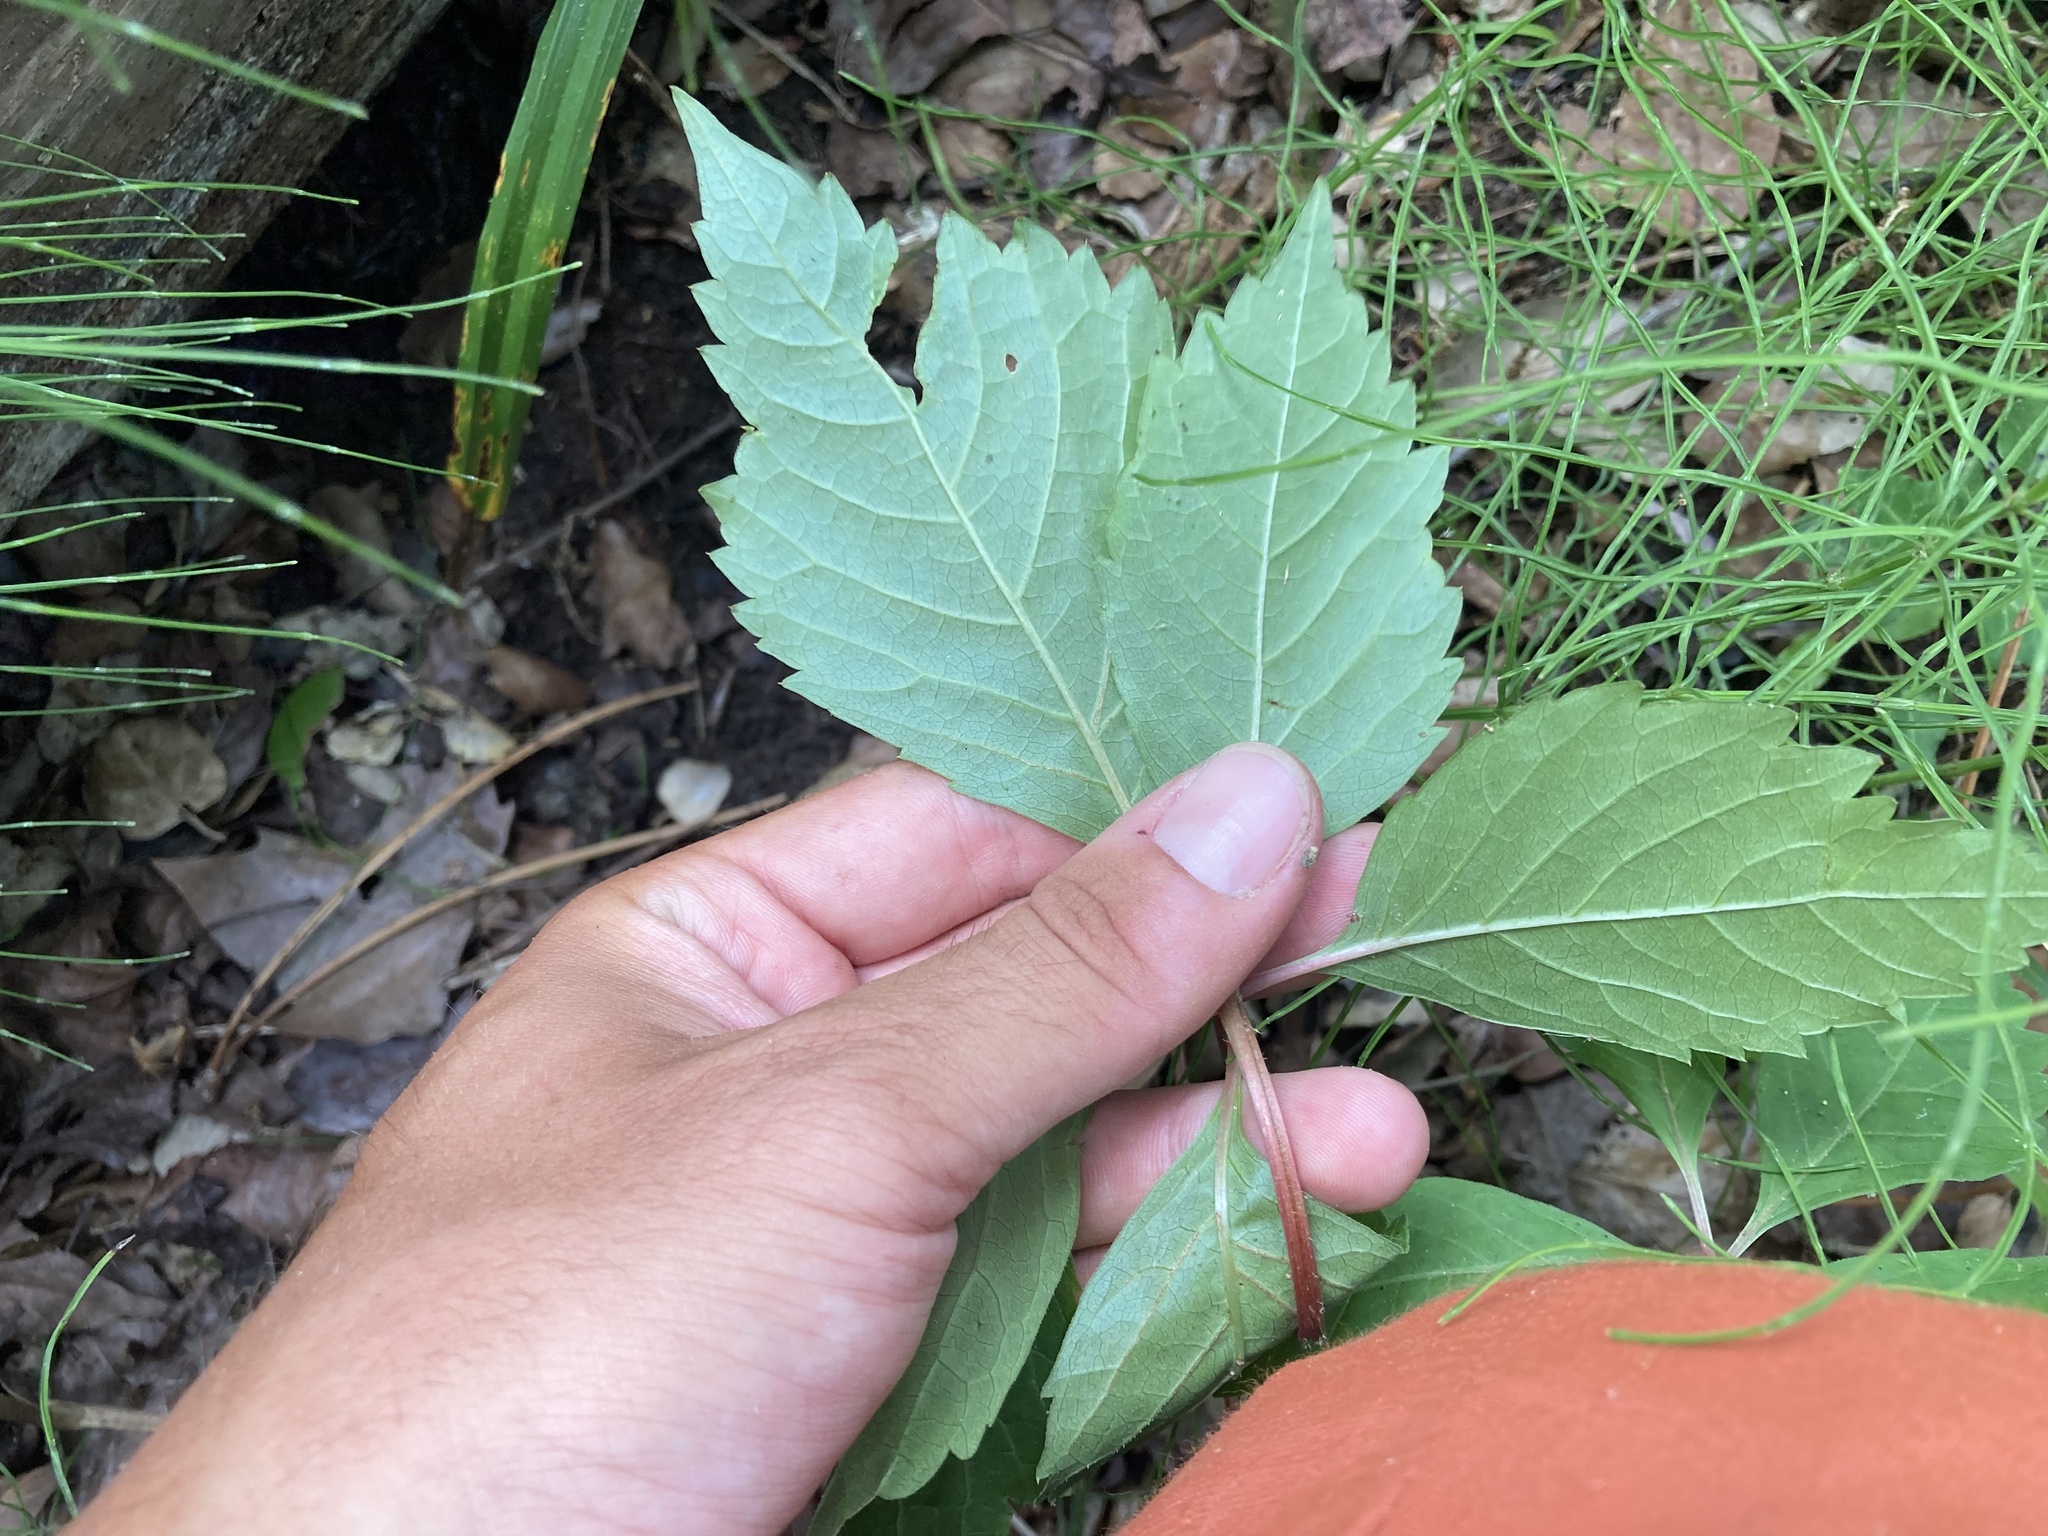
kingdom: Plantae
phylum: Tracheophyta
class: Magnoliopsida
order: Vitales
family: Vitaceae
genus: Parthenocissus
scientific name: Parthenocissus inserta
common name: False virginia-creeper
